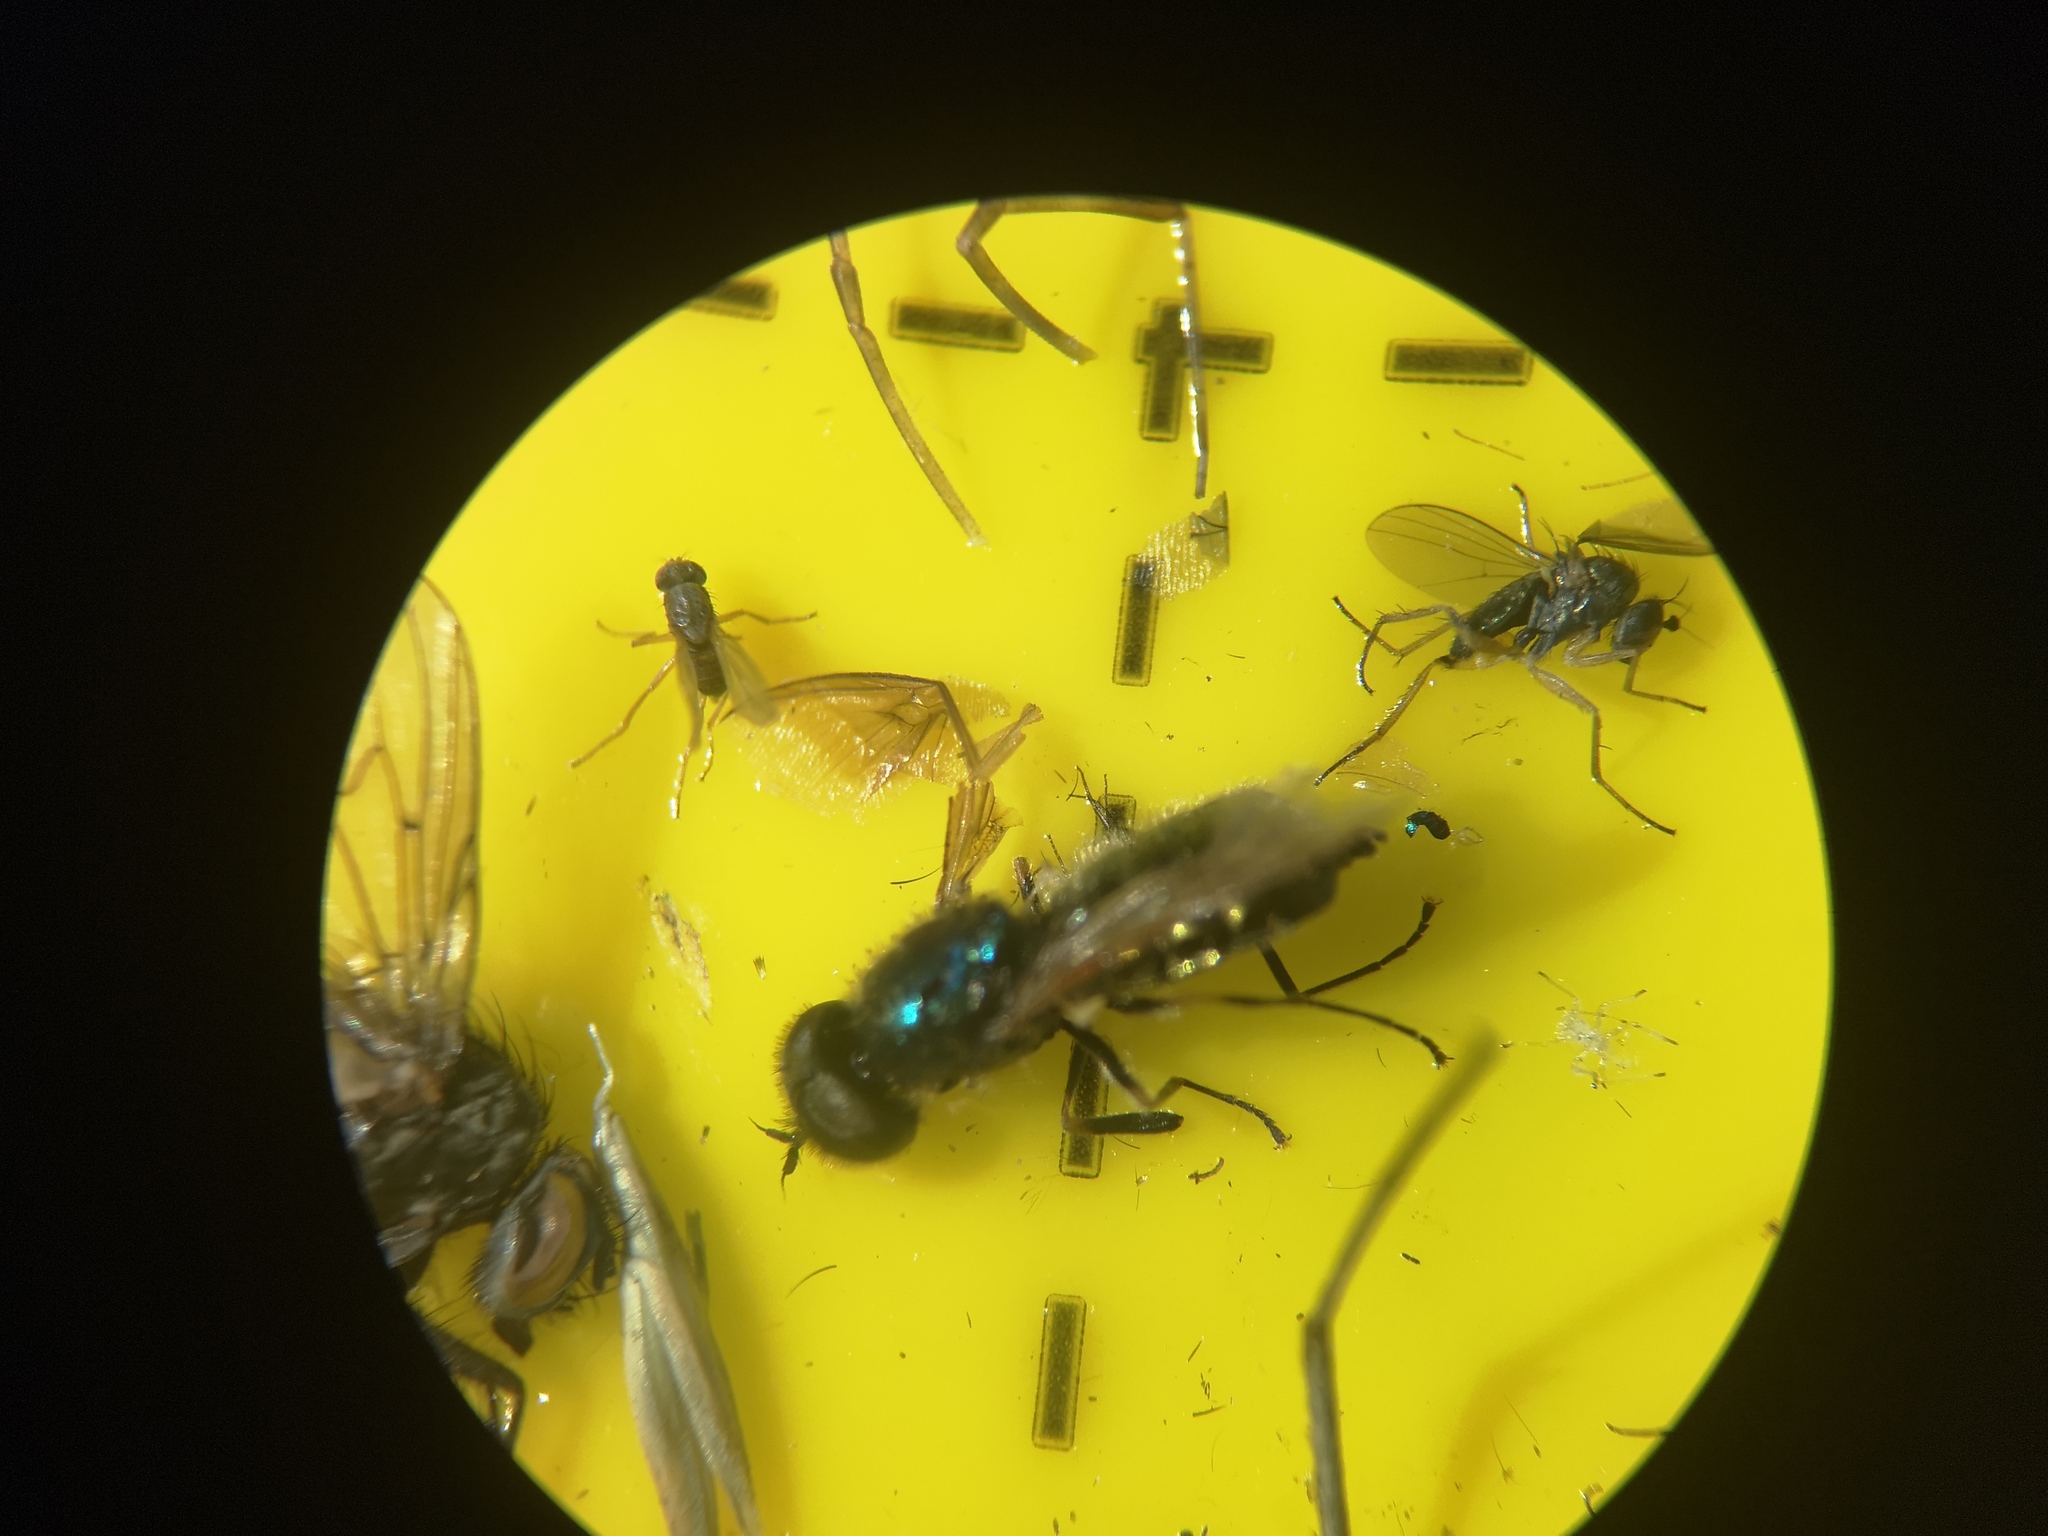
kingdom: Animalia
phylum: Arthropoda
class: Insecta
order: Diptera
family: Stratiomyidae
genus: Chloromyia
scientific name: Chloromyia formosa
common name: Soldier fly
